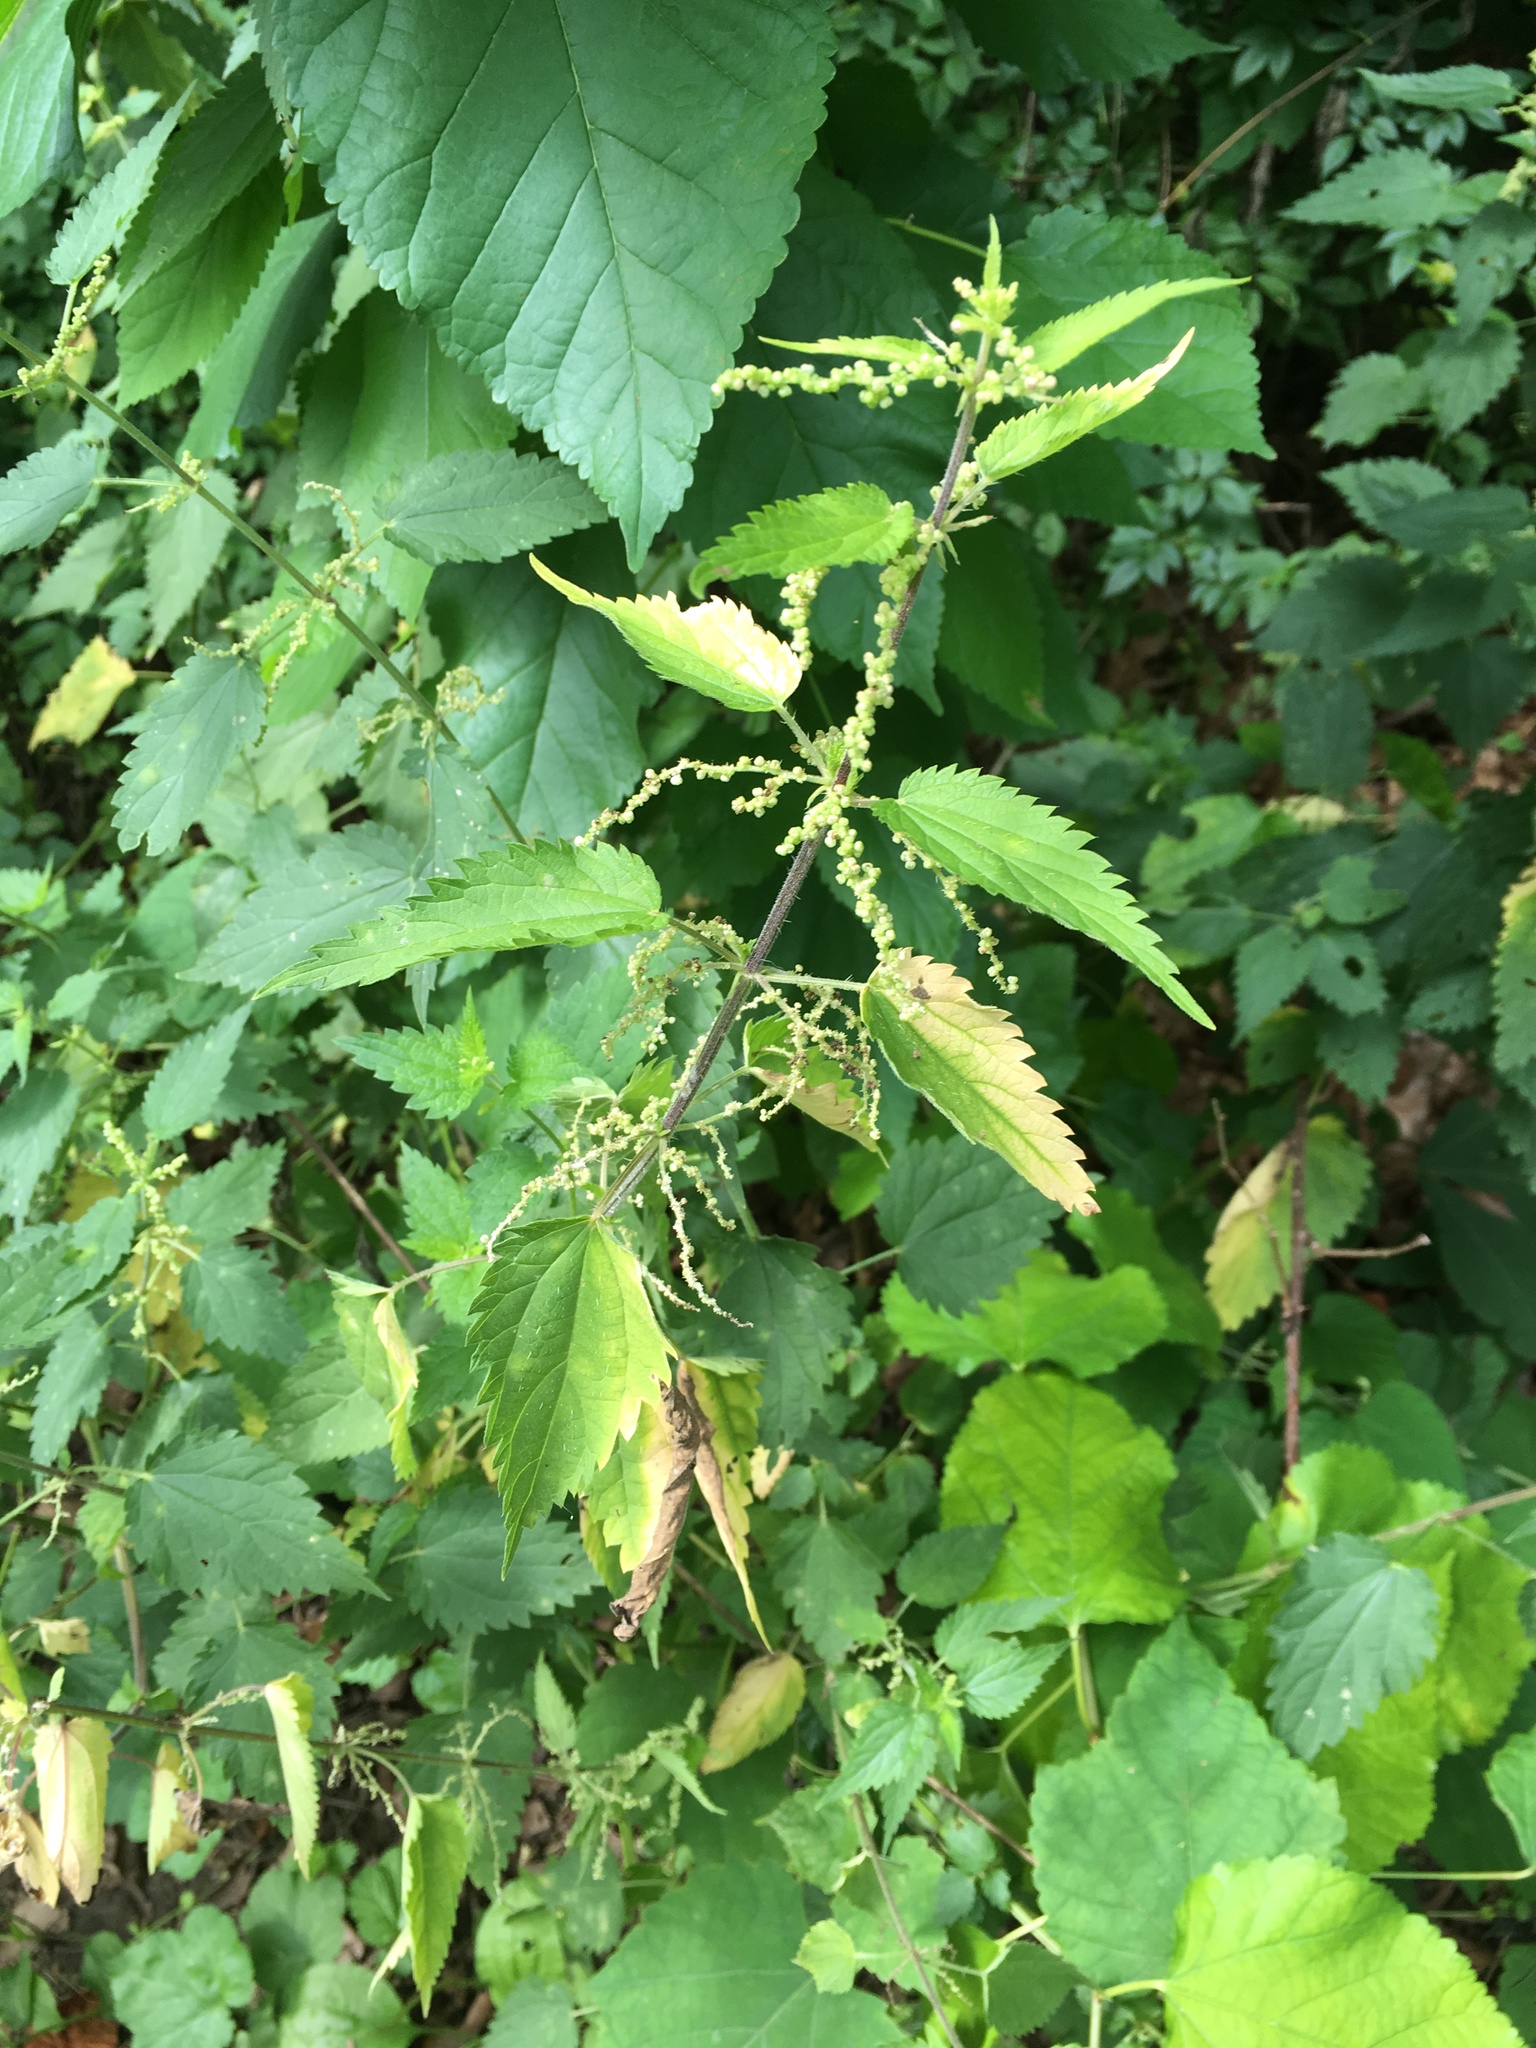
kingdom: Plantae
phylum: Tracheophyta
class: Magnoliopsida
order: Rosales
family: Urticaceae
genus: Urtica
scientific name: Urtica dioica
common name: Common nettle
